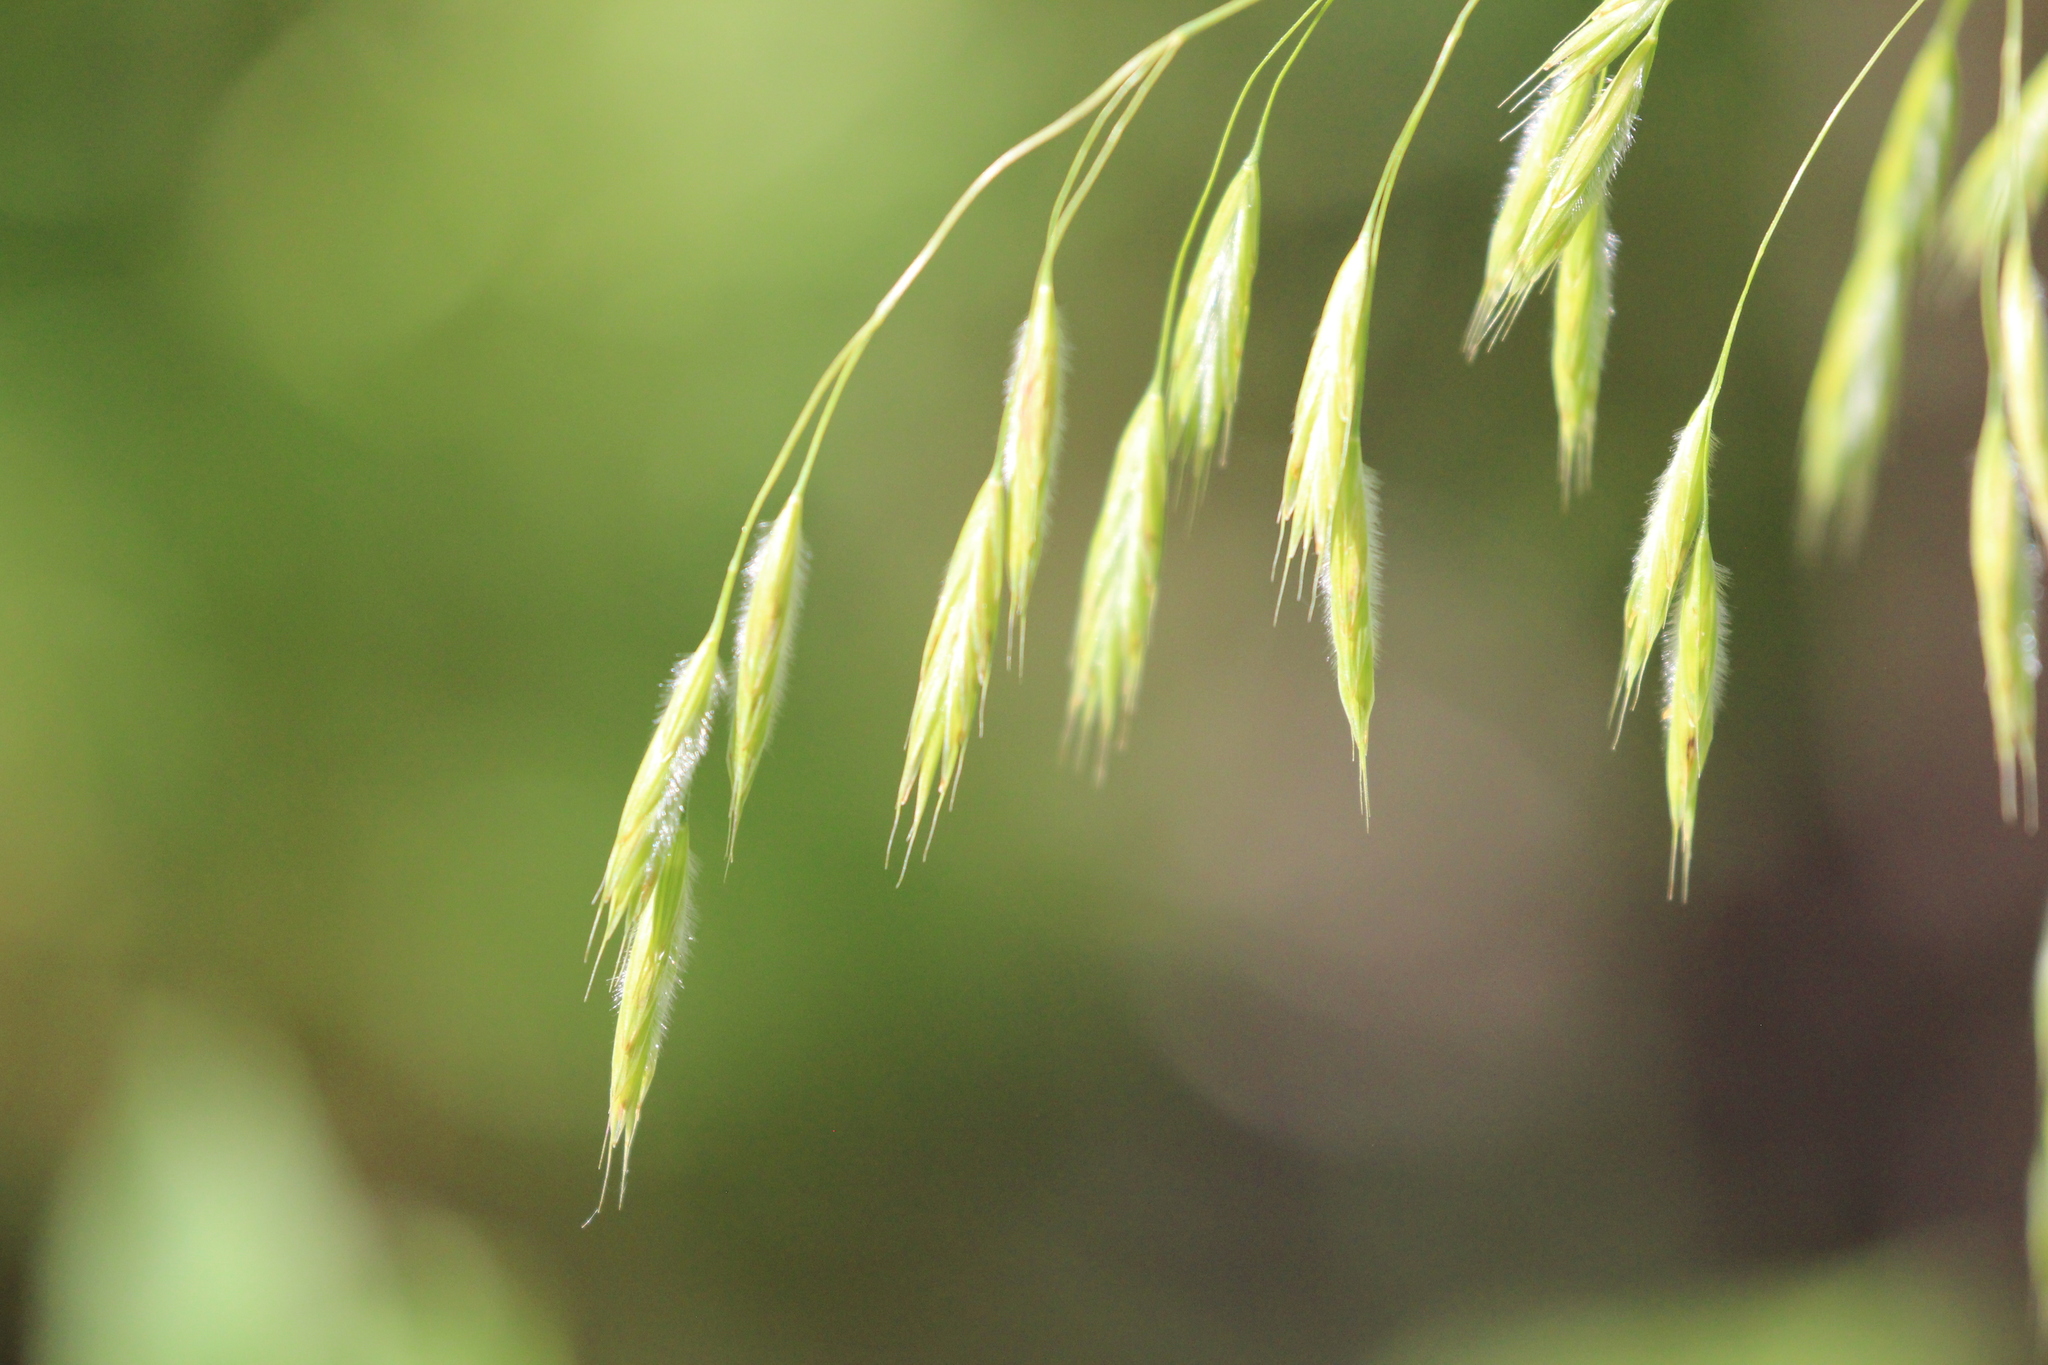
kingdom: Plantae
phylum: Tracheophyta
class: Liliopsida
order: Poales
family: Poaceae
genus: Bromus
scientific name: Bromus ciliatus
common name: Fringe brome
